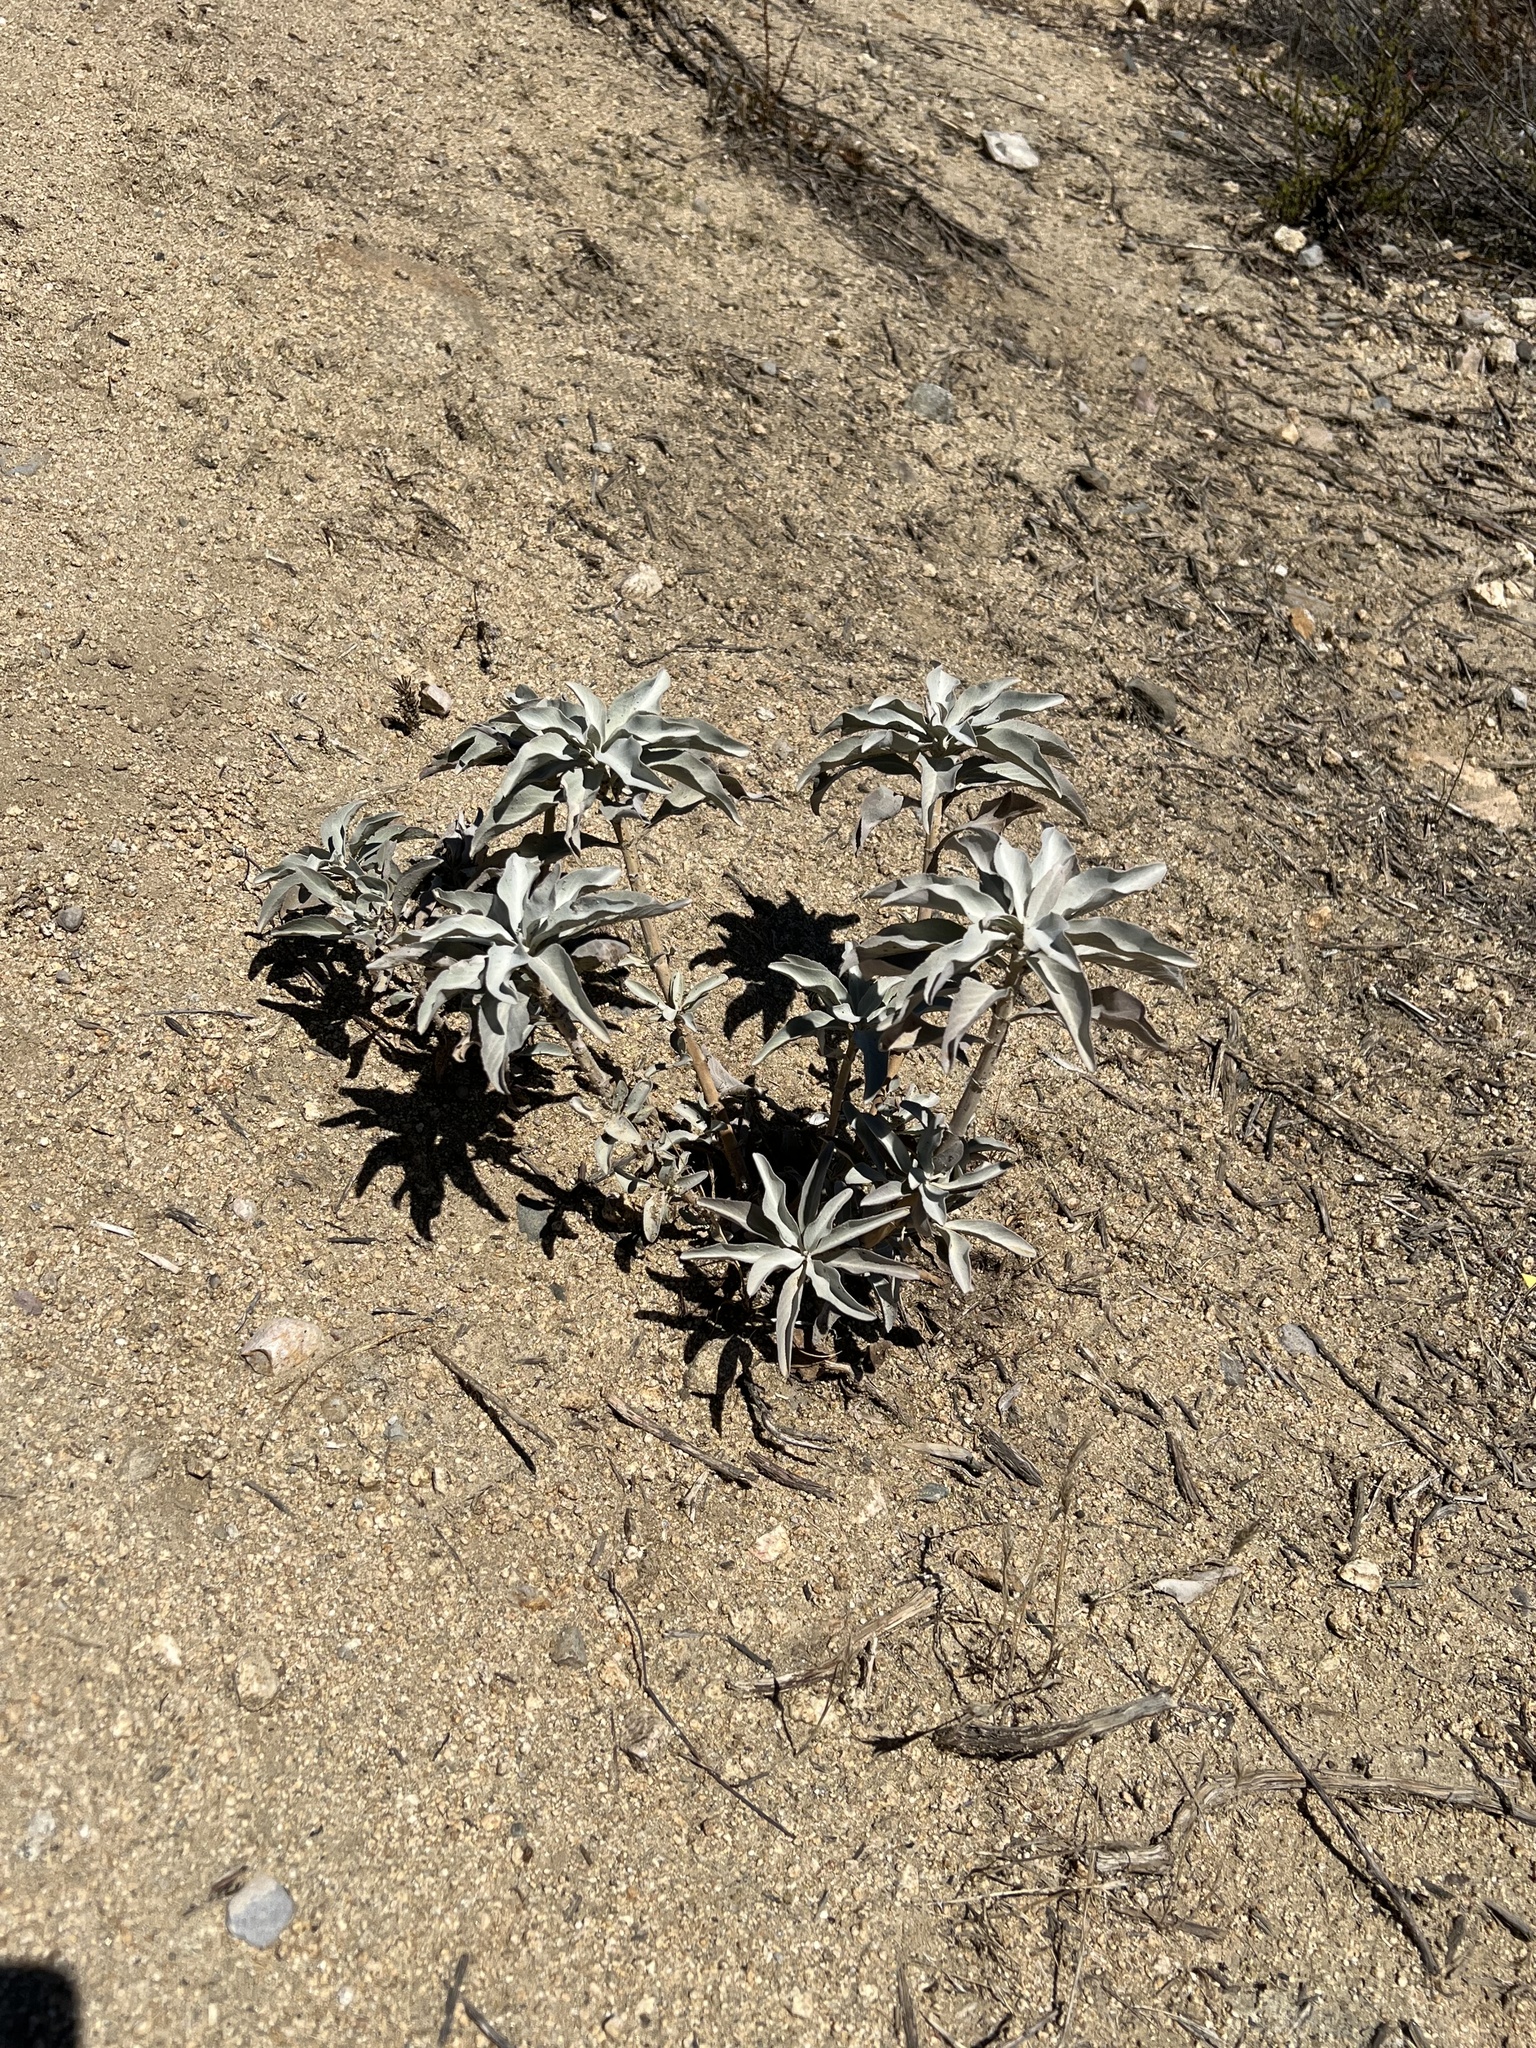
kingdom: Plantae
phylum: Tracheophyta
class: Magnoliopsida
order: Lamiales
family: Lamiaceae
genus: Salvia
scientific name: Salvia apiana
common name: White sage
